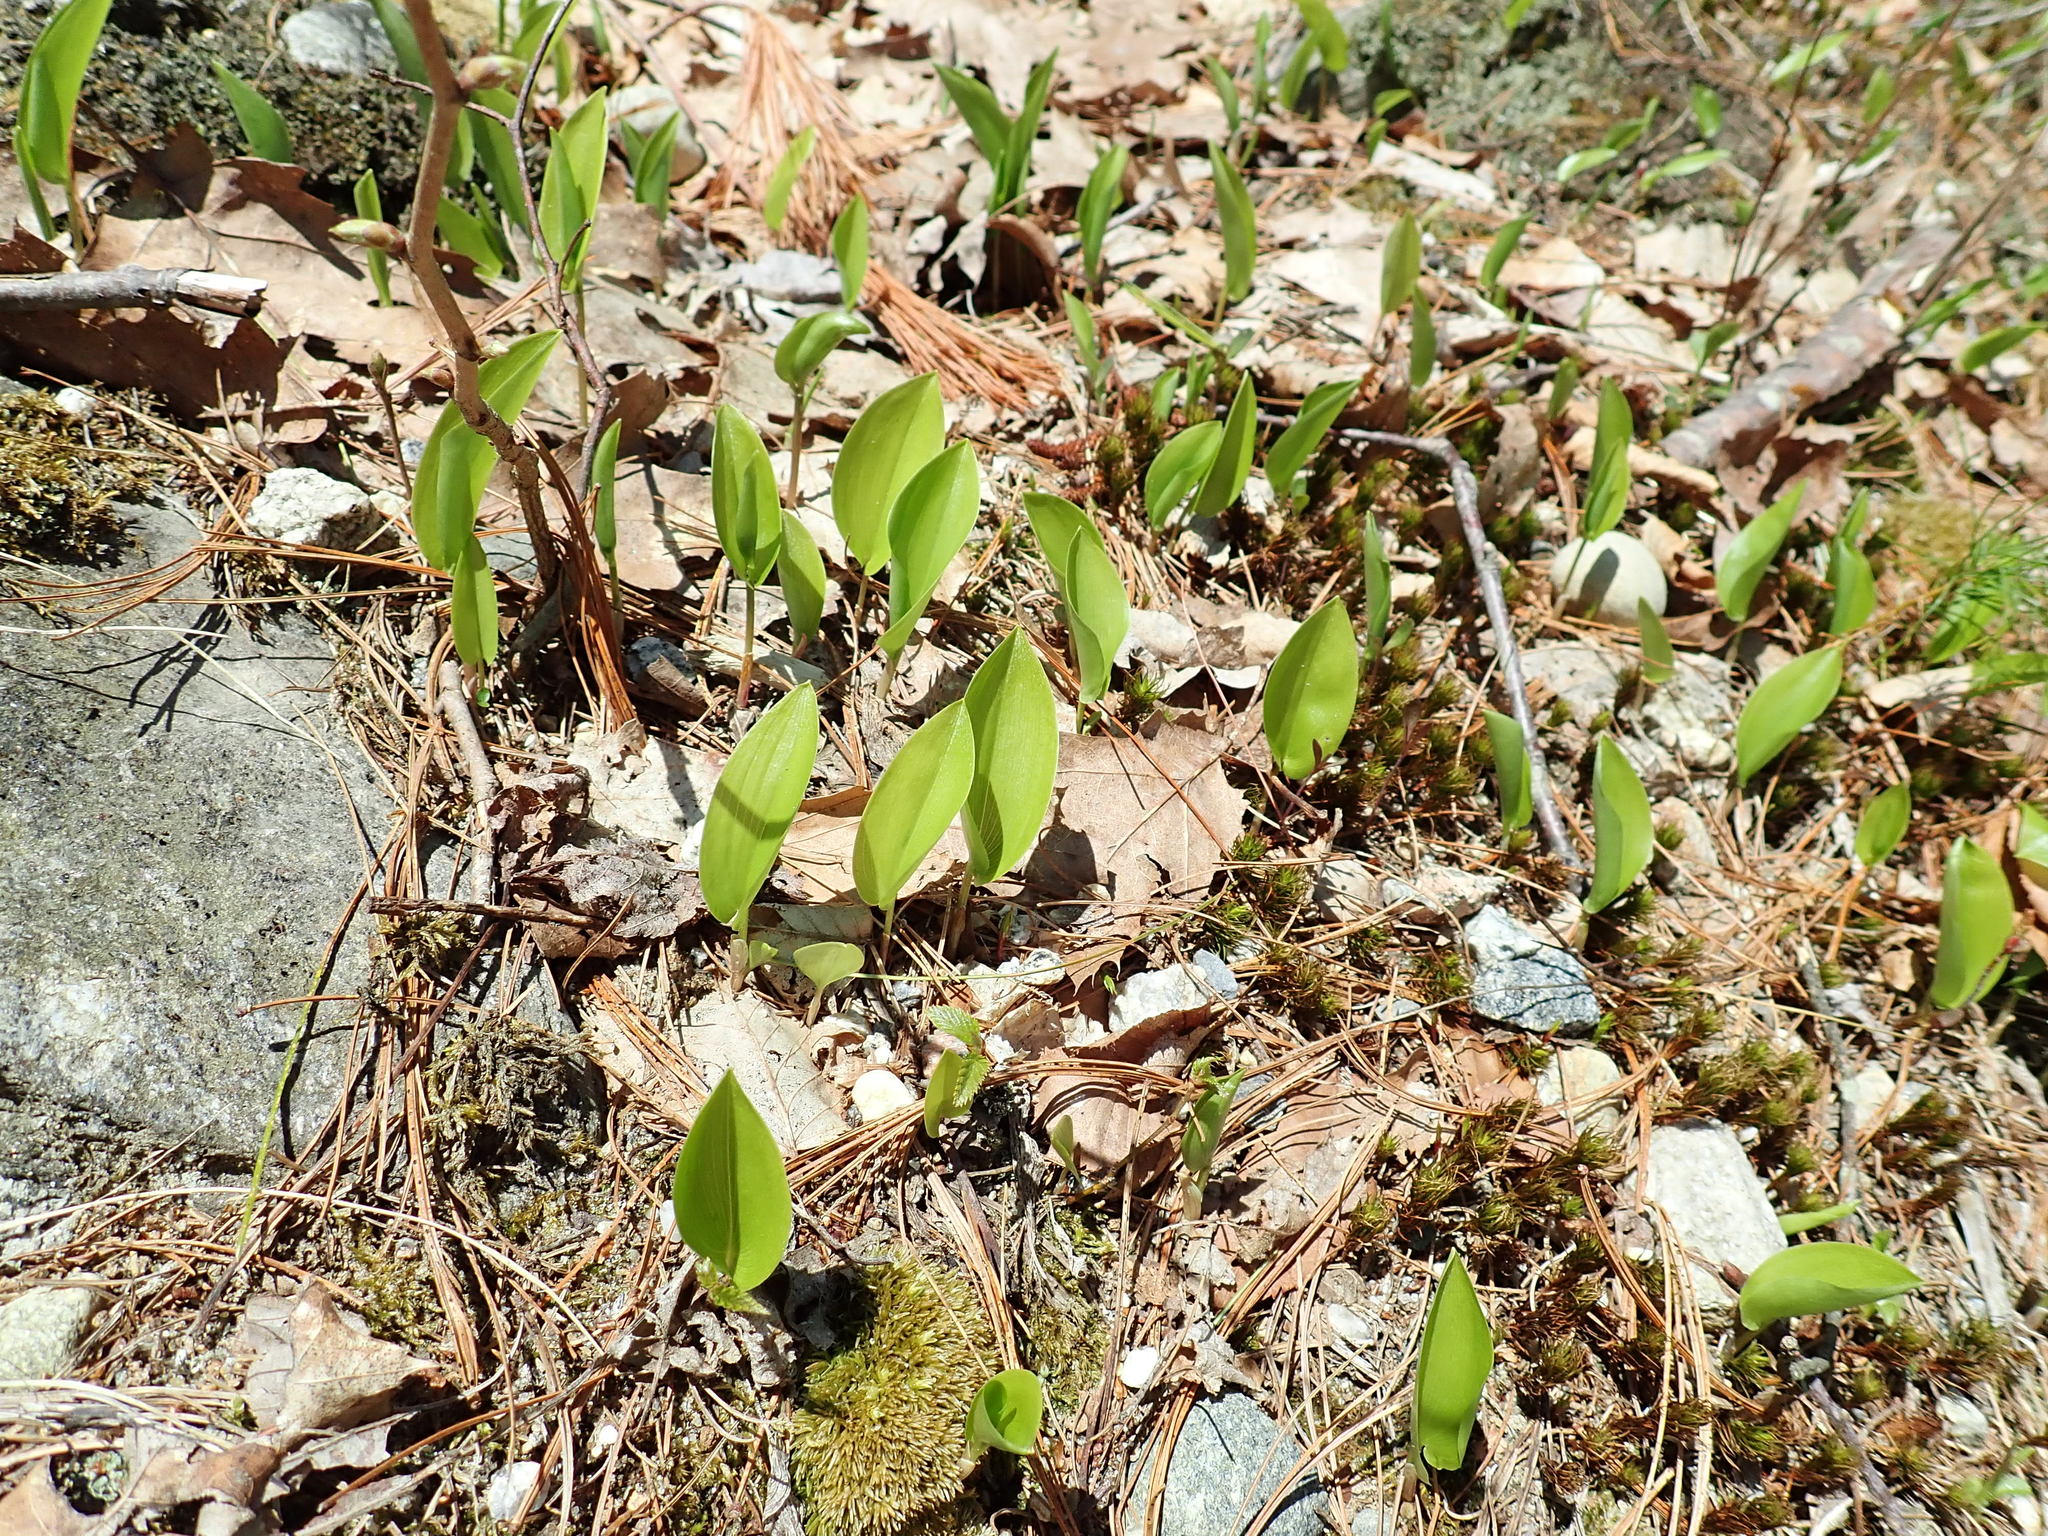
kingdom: Plantae
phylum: Tracheophyta
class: Liliopsida
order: Asparagales
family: Asparagaceae
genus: Maianthemum
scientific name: Maianthemum canadense
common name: False lily-of-the-valley
